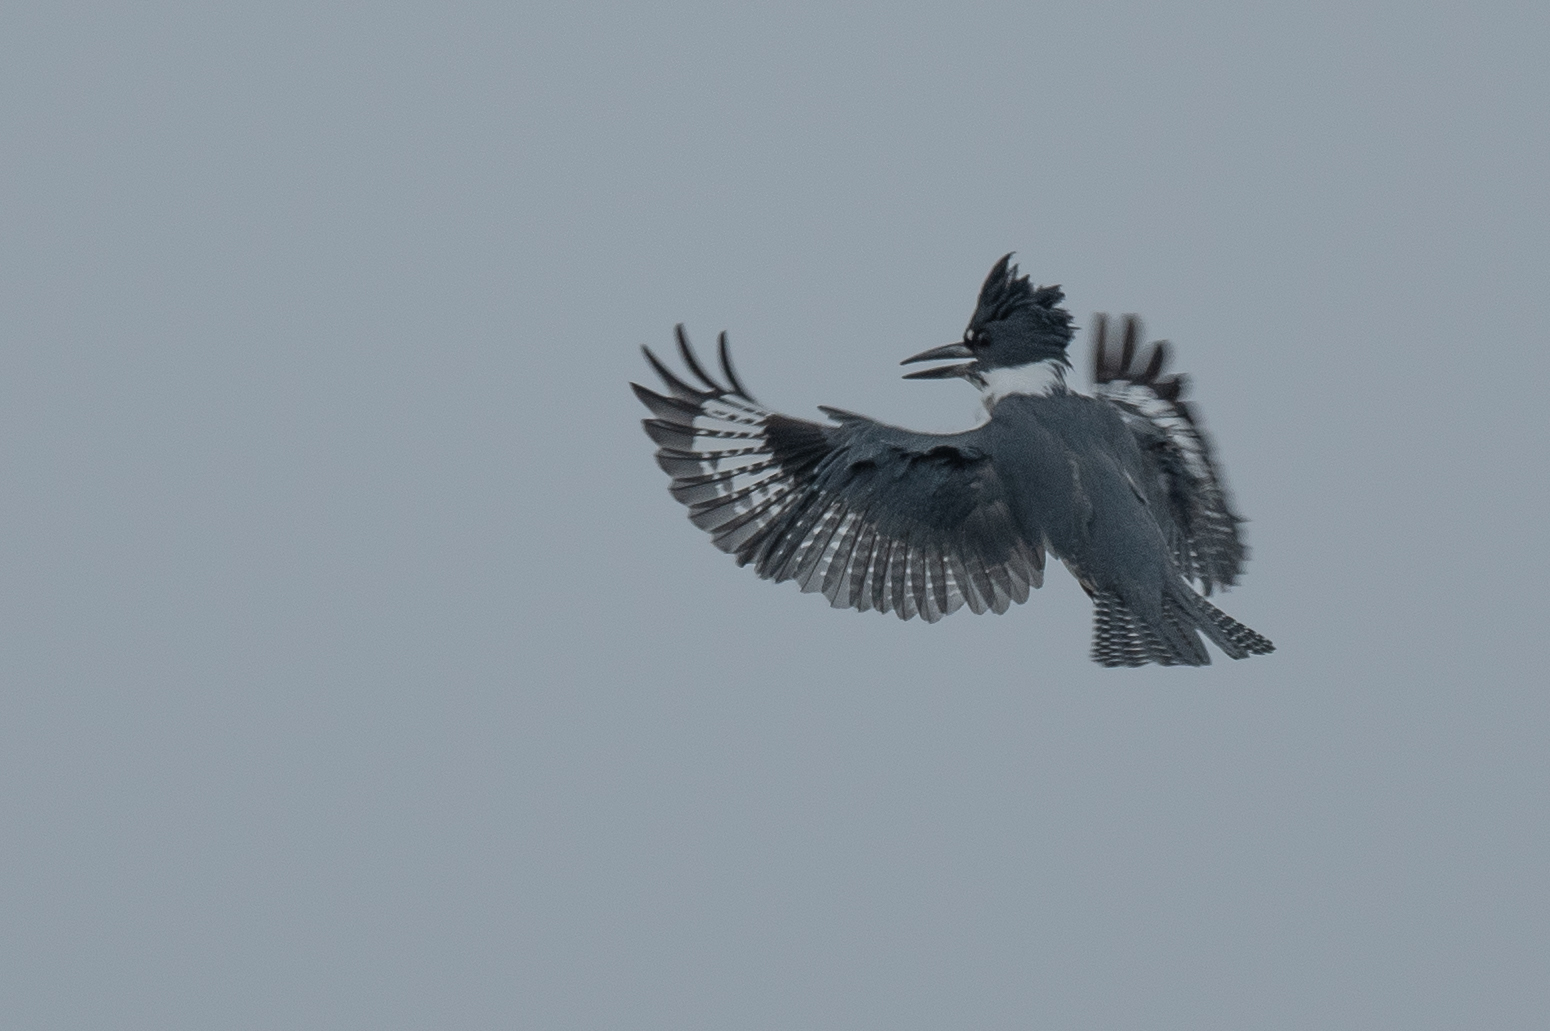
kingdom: Animalia
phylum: Chordata
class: Aves
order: Coraciiformes
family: Alcedinidae
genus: Megaceryle
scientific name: Megaceryle alcyon
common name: Belted kingfisher
